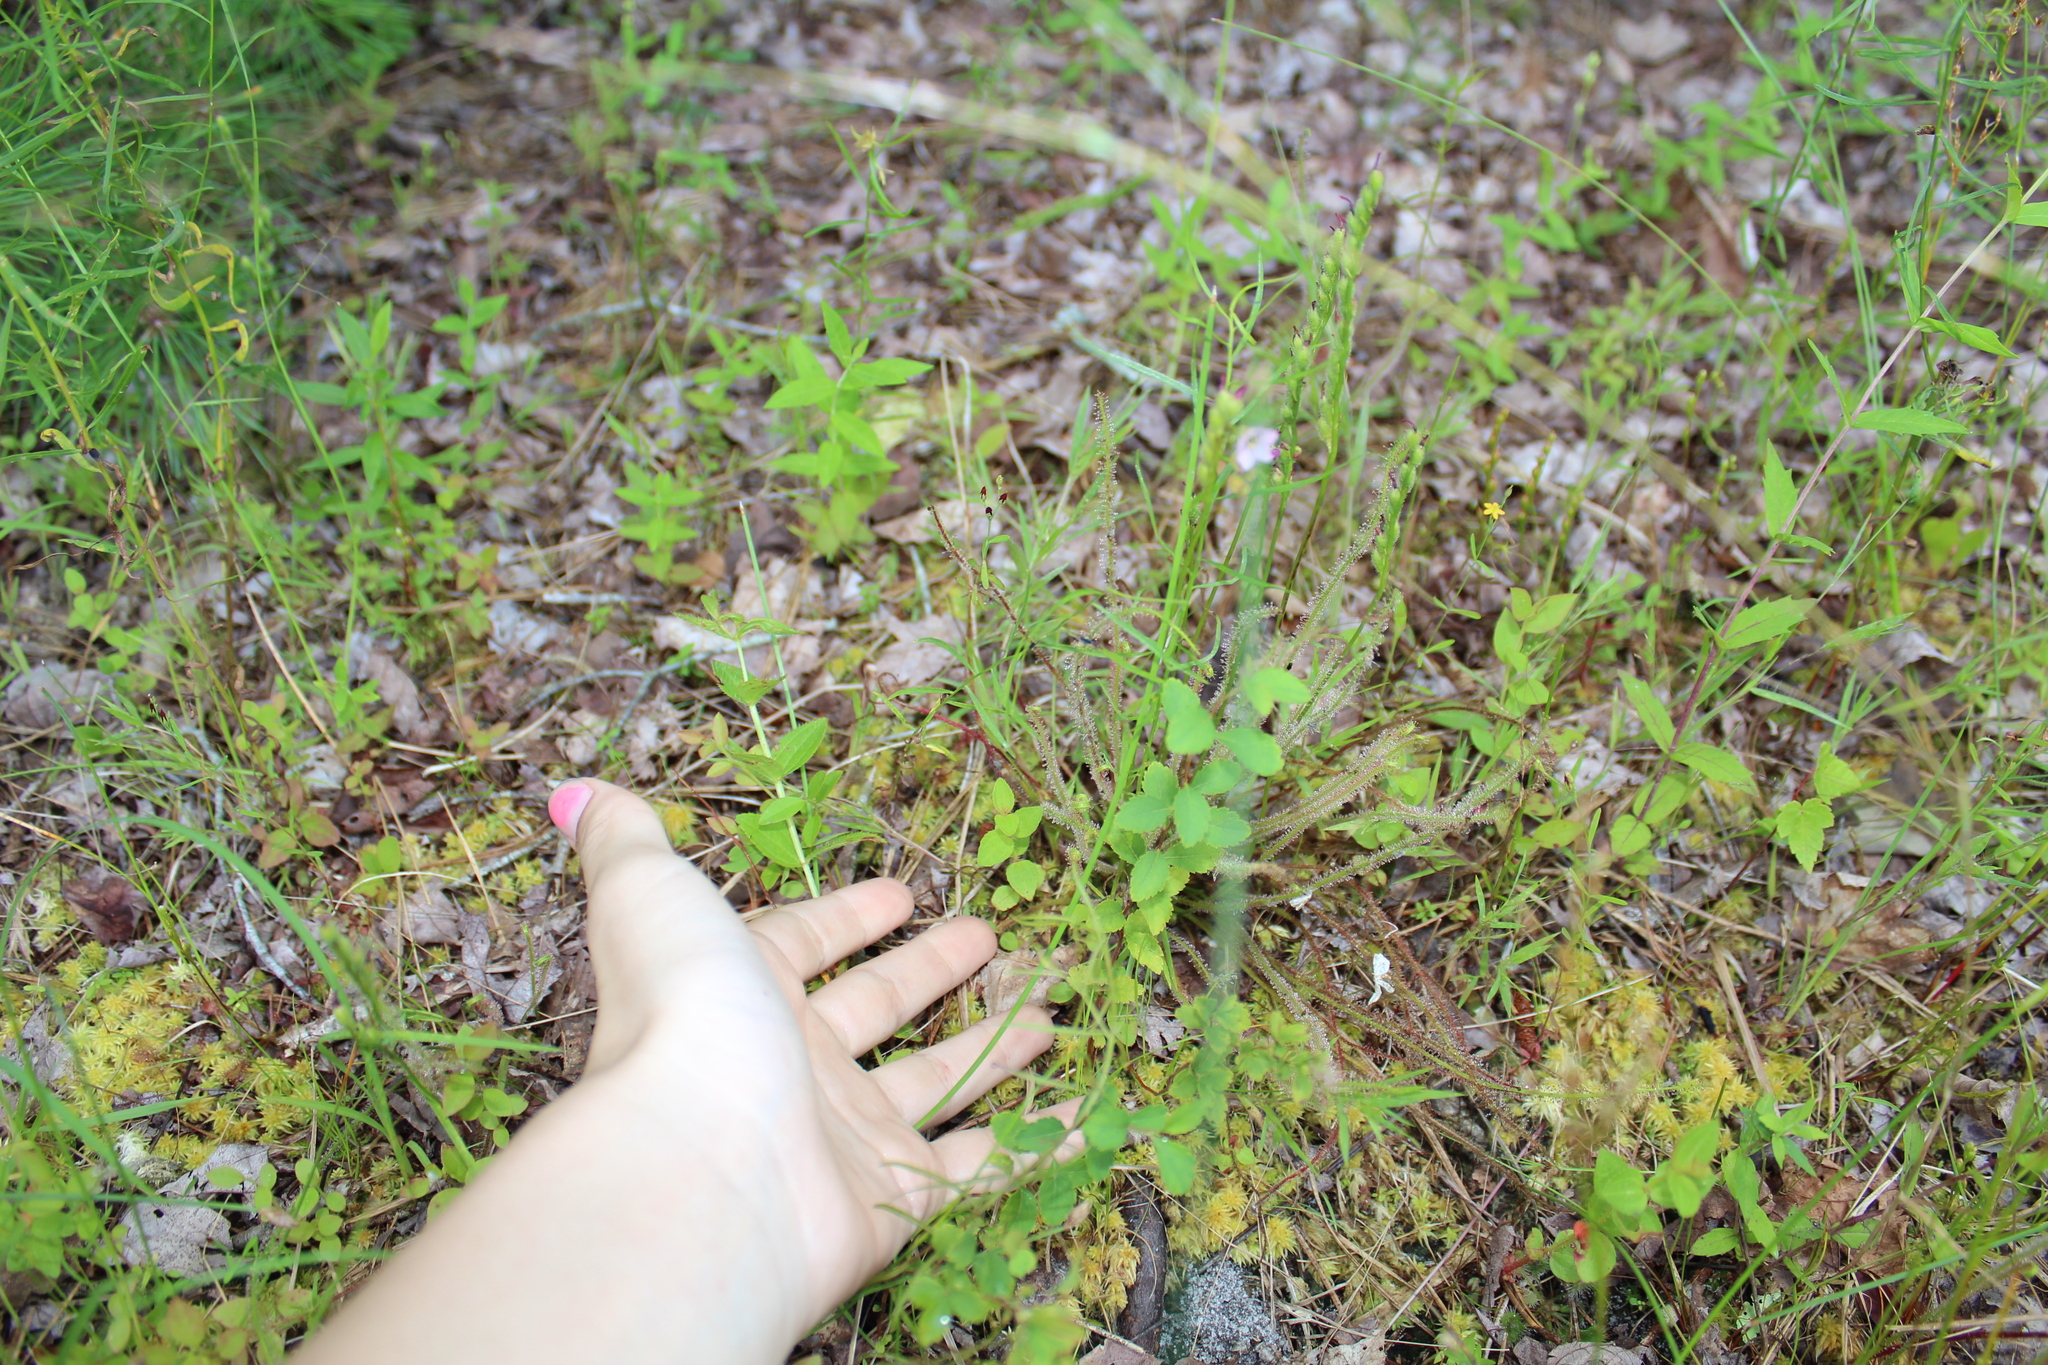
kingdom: Plantae
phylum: Tracheophyta
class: Magnoliopsida
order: Caryophyllales
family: Droseraceae
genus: Drosera
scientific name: Drosera filiformis
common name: Dew-thread
